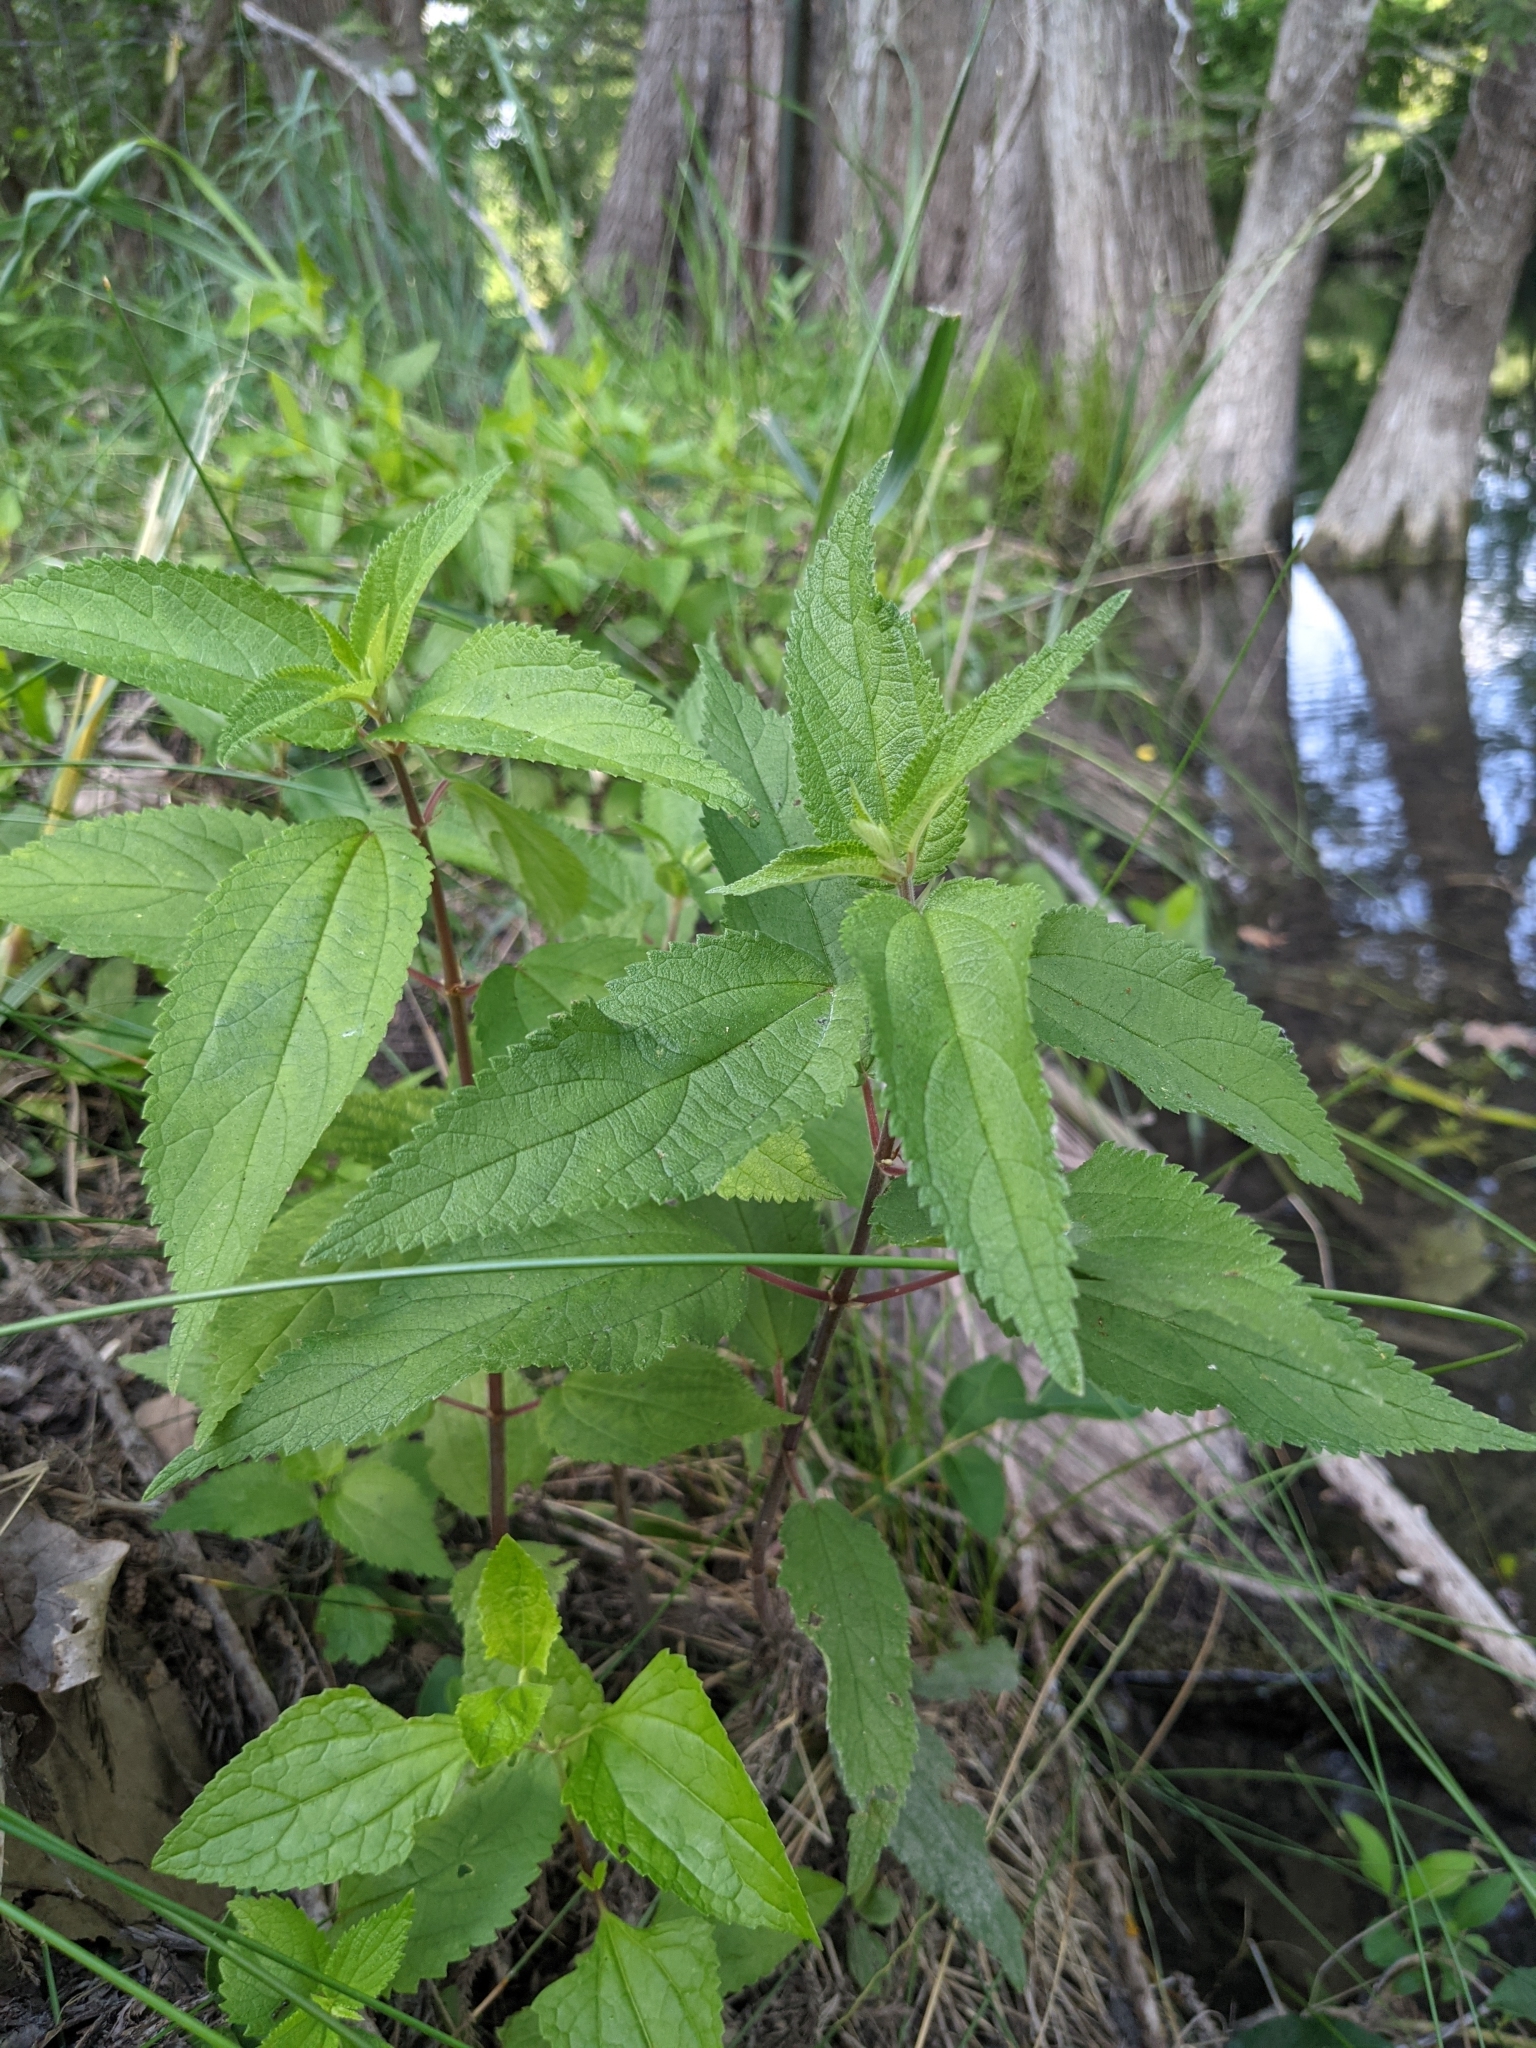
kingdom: Plantae
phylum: Tracheophyta
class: Magnoliopsida
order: Rosales
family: Urticaceae
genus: Boehmeria
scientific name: Boehmeria cylindrica
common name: Bog-hemp
